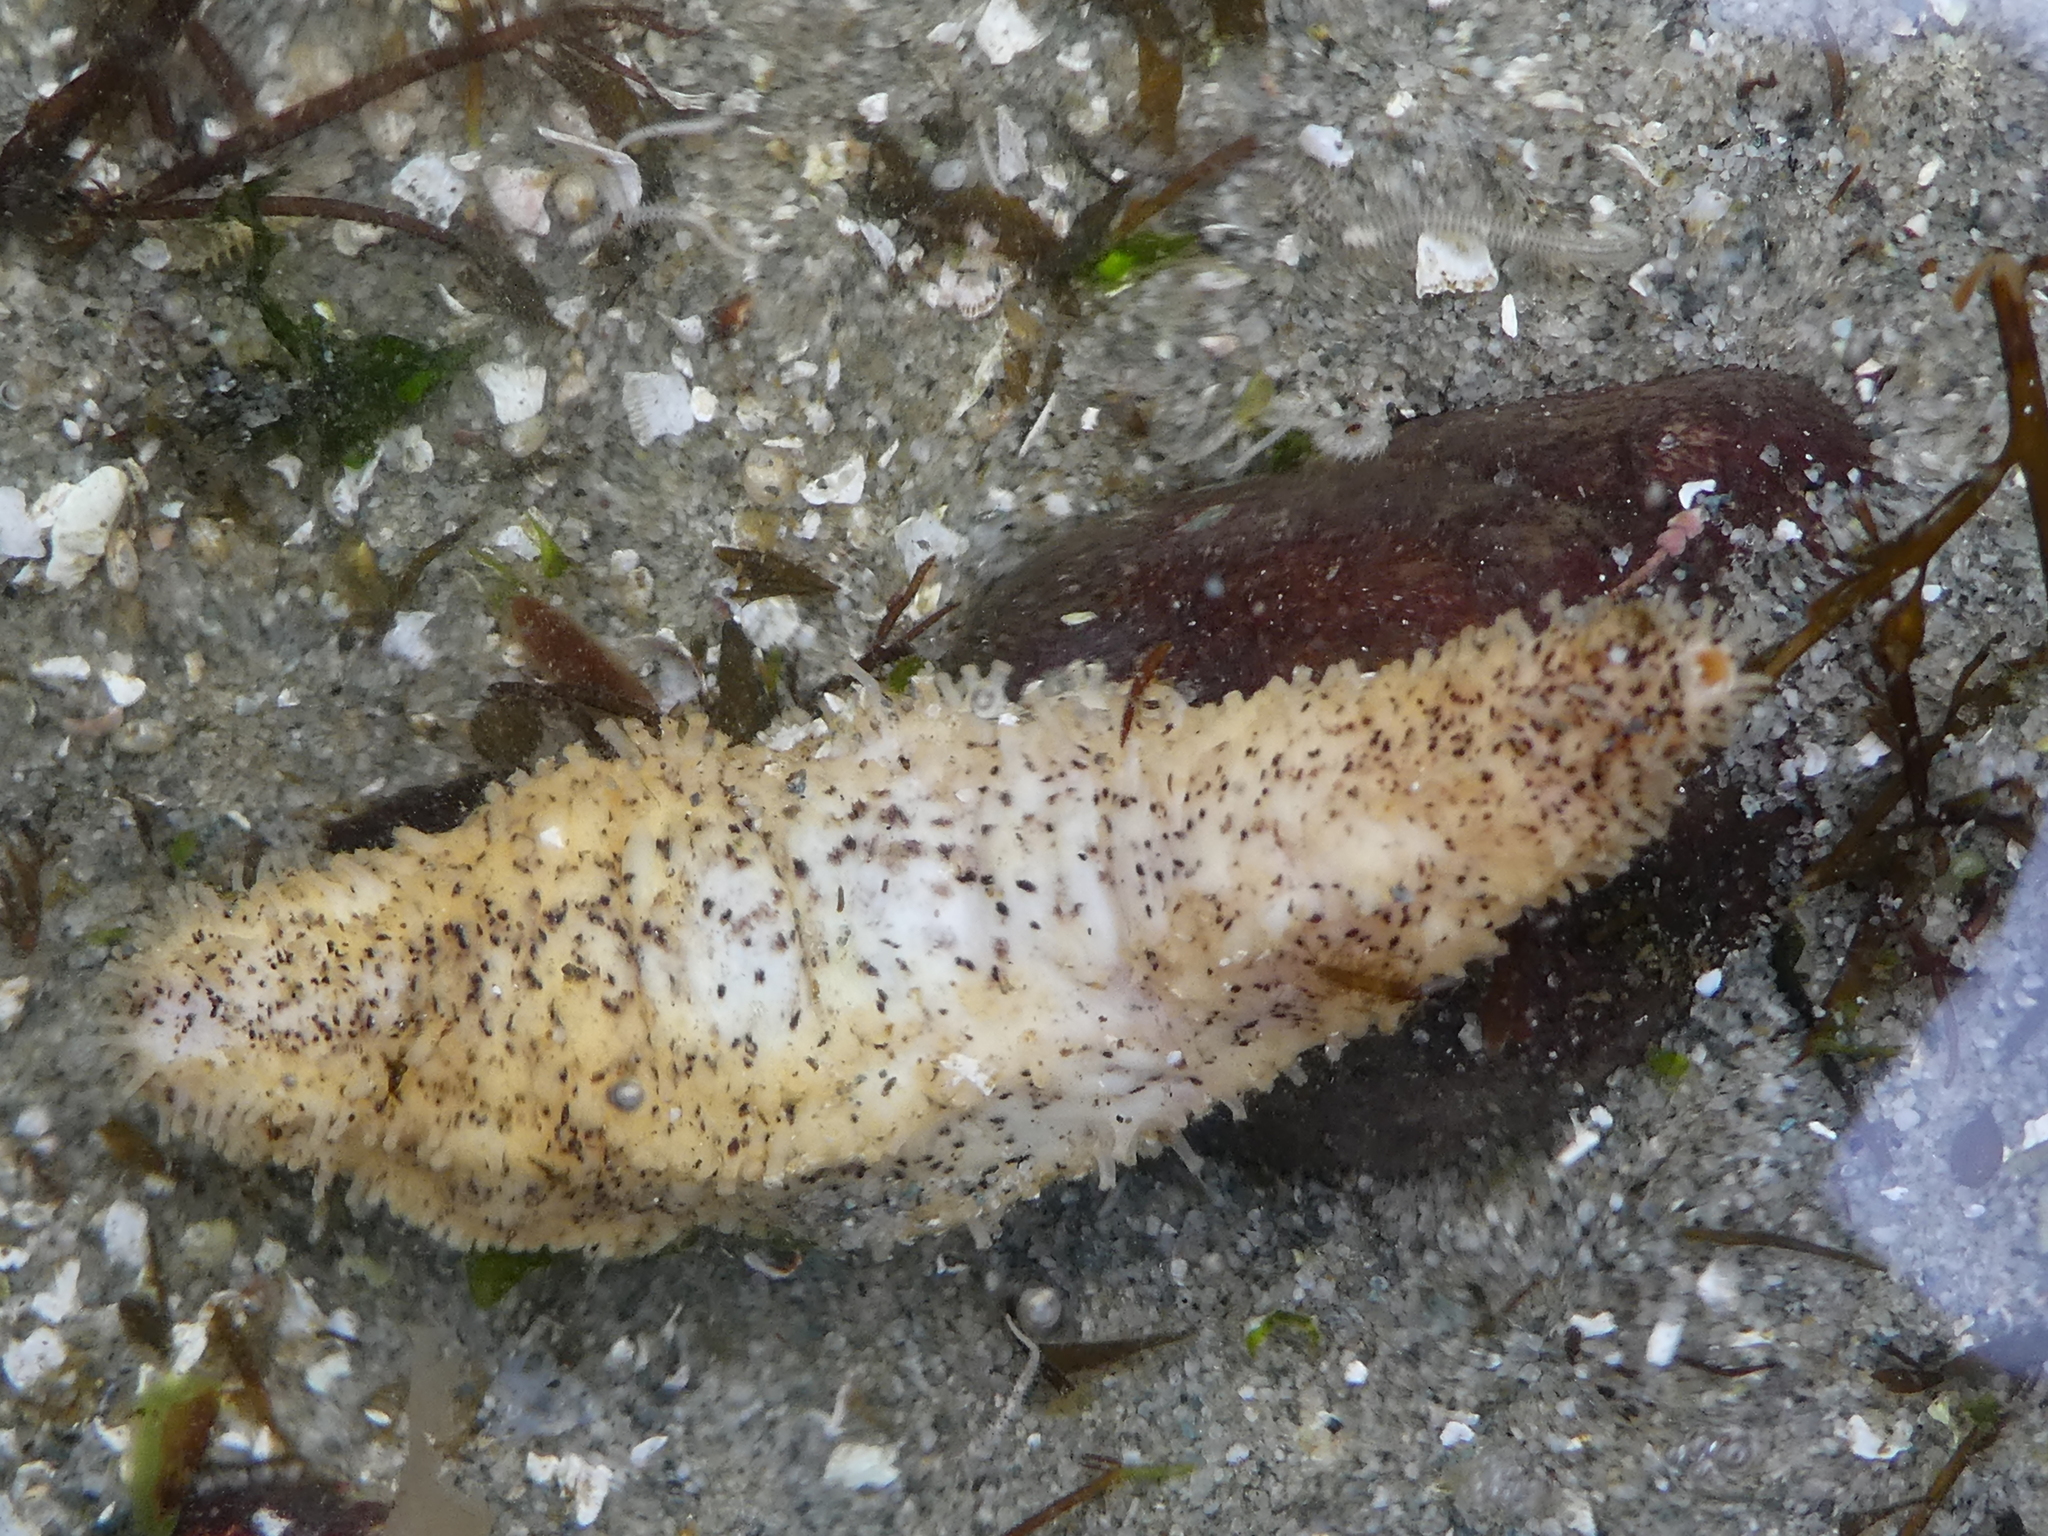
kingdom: Animalia
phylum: Echinodermata
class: Holothuroidea
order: Dendrochirotida
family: Cucumariidae
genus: Cucumaria
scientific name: Cucumaria piperata
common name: Peppered sea cucumber
